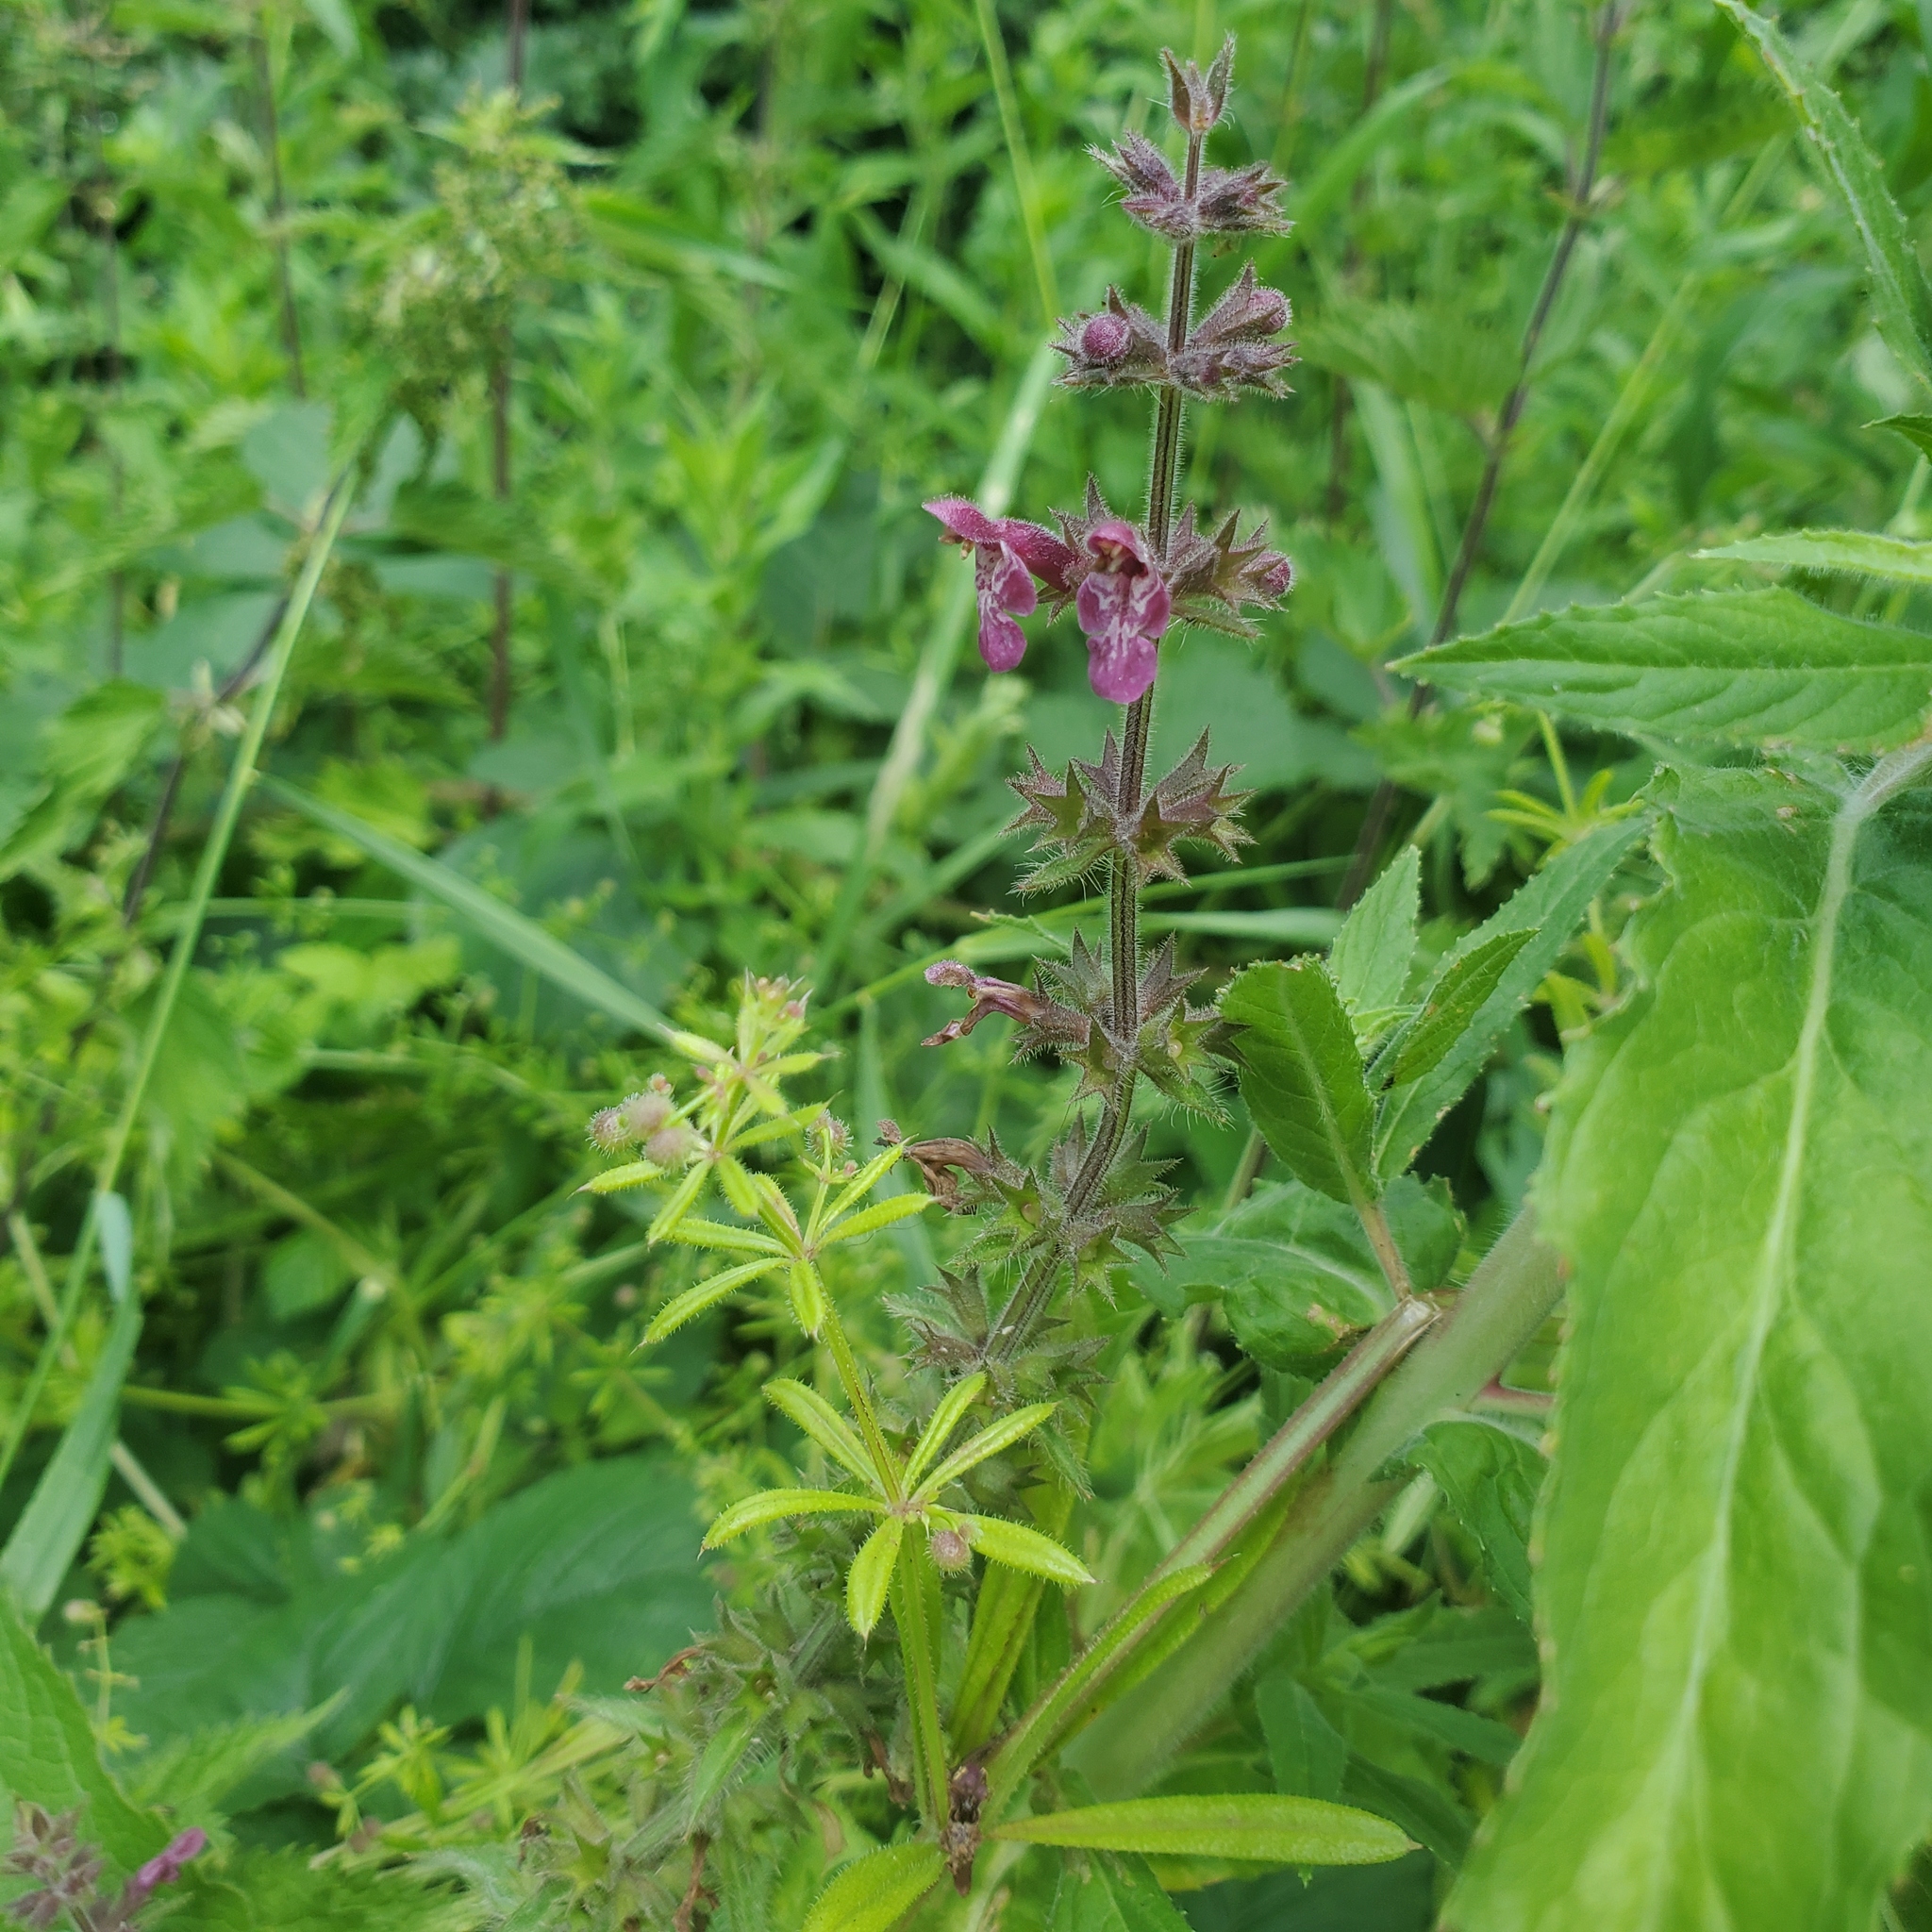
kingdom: Plantae
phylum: Tracheophyta
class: Magnoliopsida
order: Lamiales
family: Lamiaceae
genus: Stachys
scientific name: Stachys sylvatica
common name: Hedge woundwort
